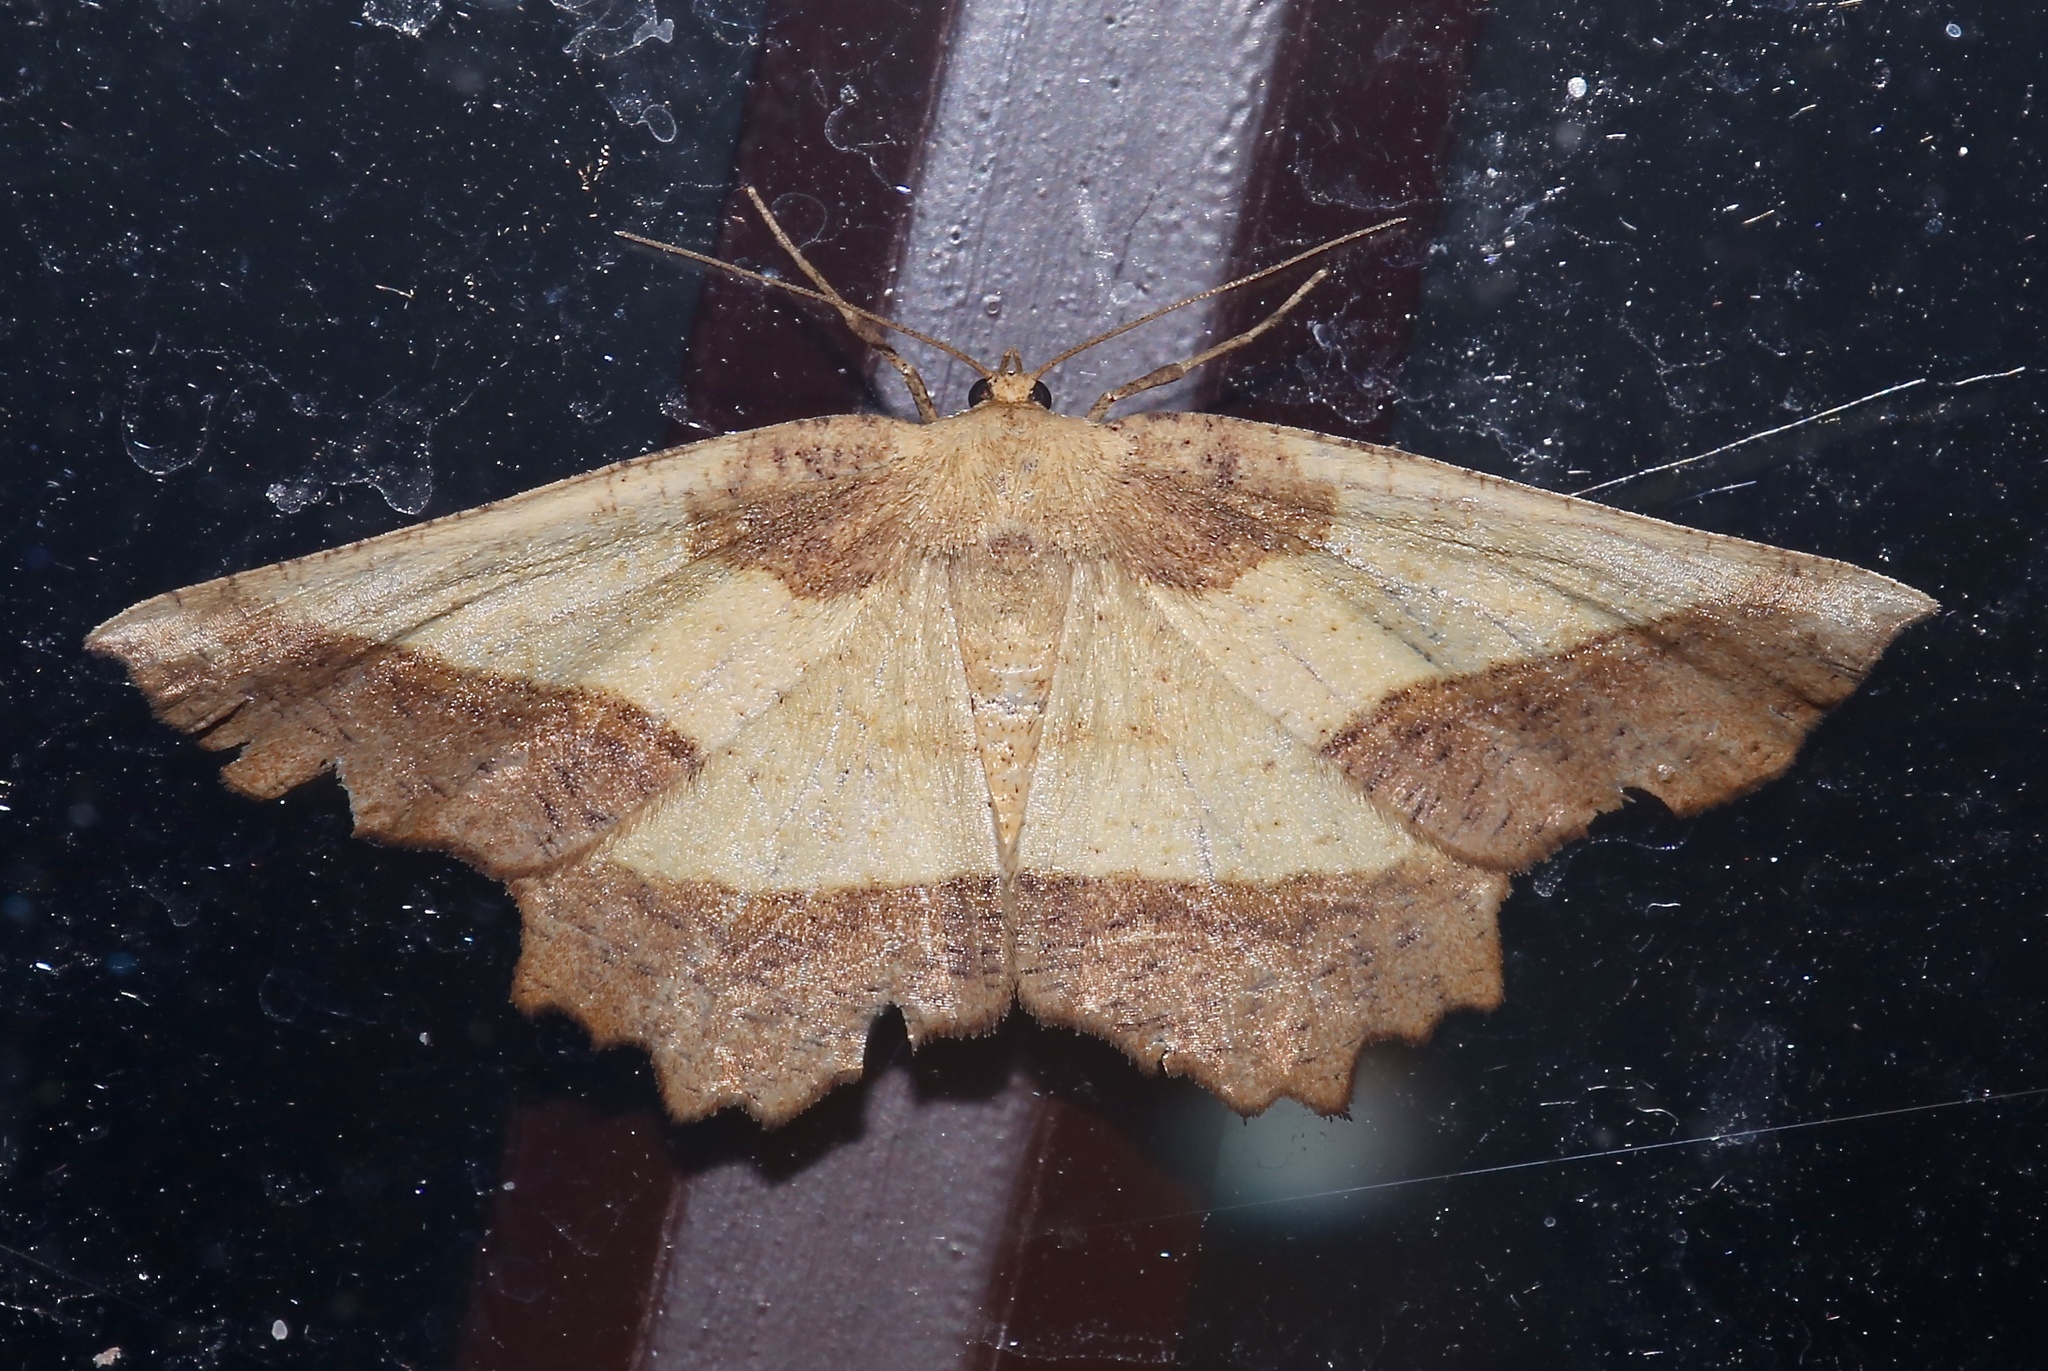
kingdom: Animalia
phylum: Arthropoda
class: Insecta
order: Lepidoptera
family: Geometridae
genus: Euchlaena
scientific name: Euchlaena serrata
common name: Saw wing
